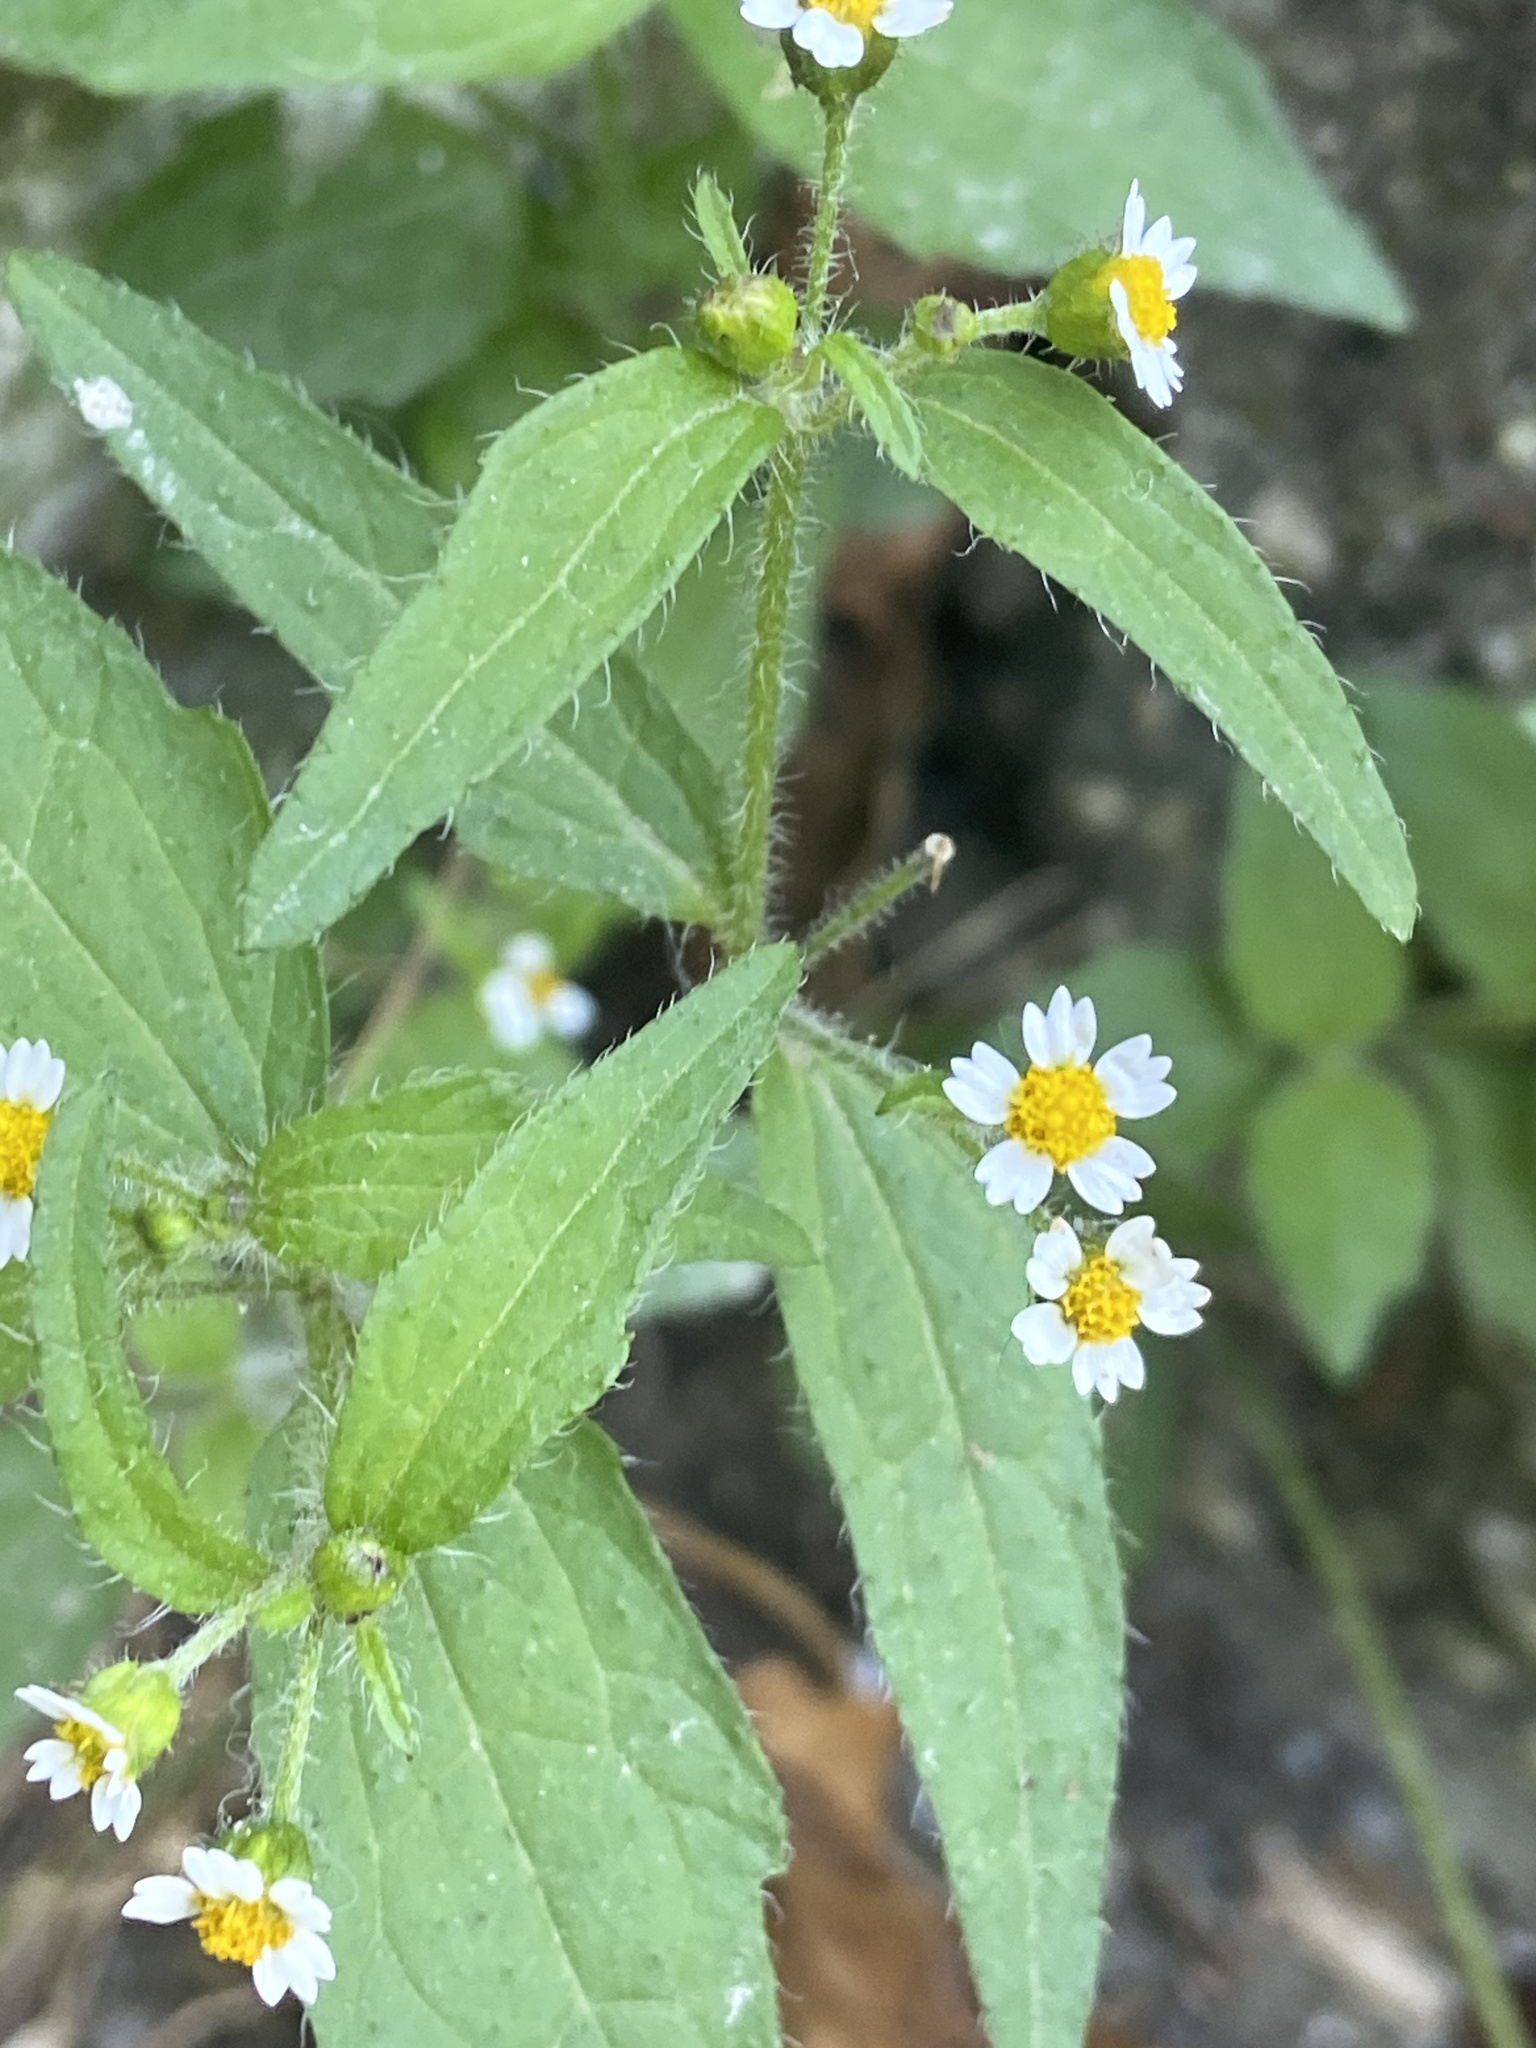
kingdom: Plantae
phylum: Tracheophyta
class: Magnoliopsida
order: Asterales
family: Asteraceae
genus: Galinsoga
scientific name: Galinsoga quadriradiata
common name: Shaggy soldier
